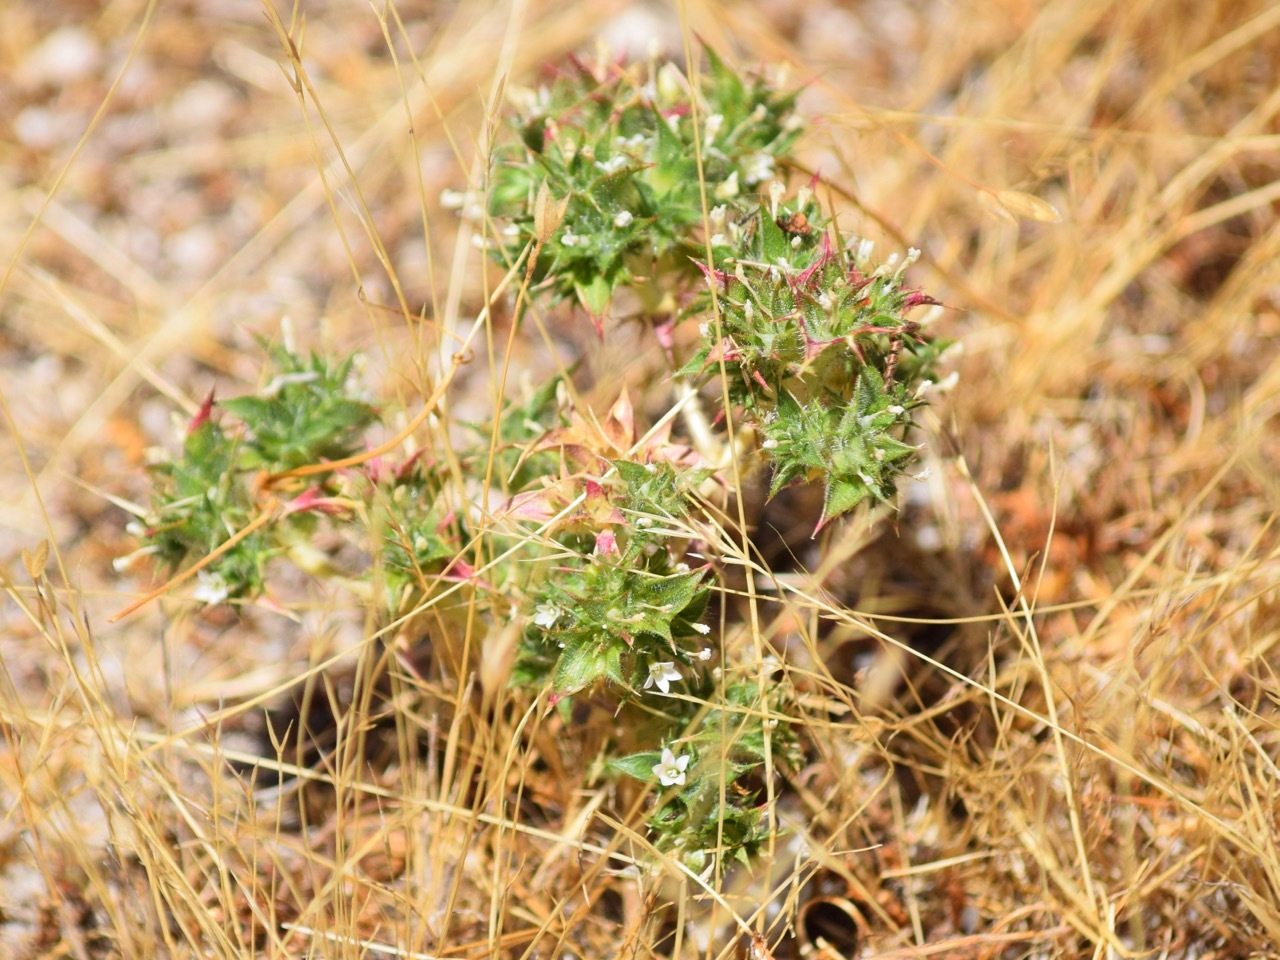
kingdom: Plantae
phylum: Tracheophyta
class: Magnoliopsida
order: Ericales
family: Polemoniaceae
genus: Navarretia
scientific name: Navarretia atractyloides
